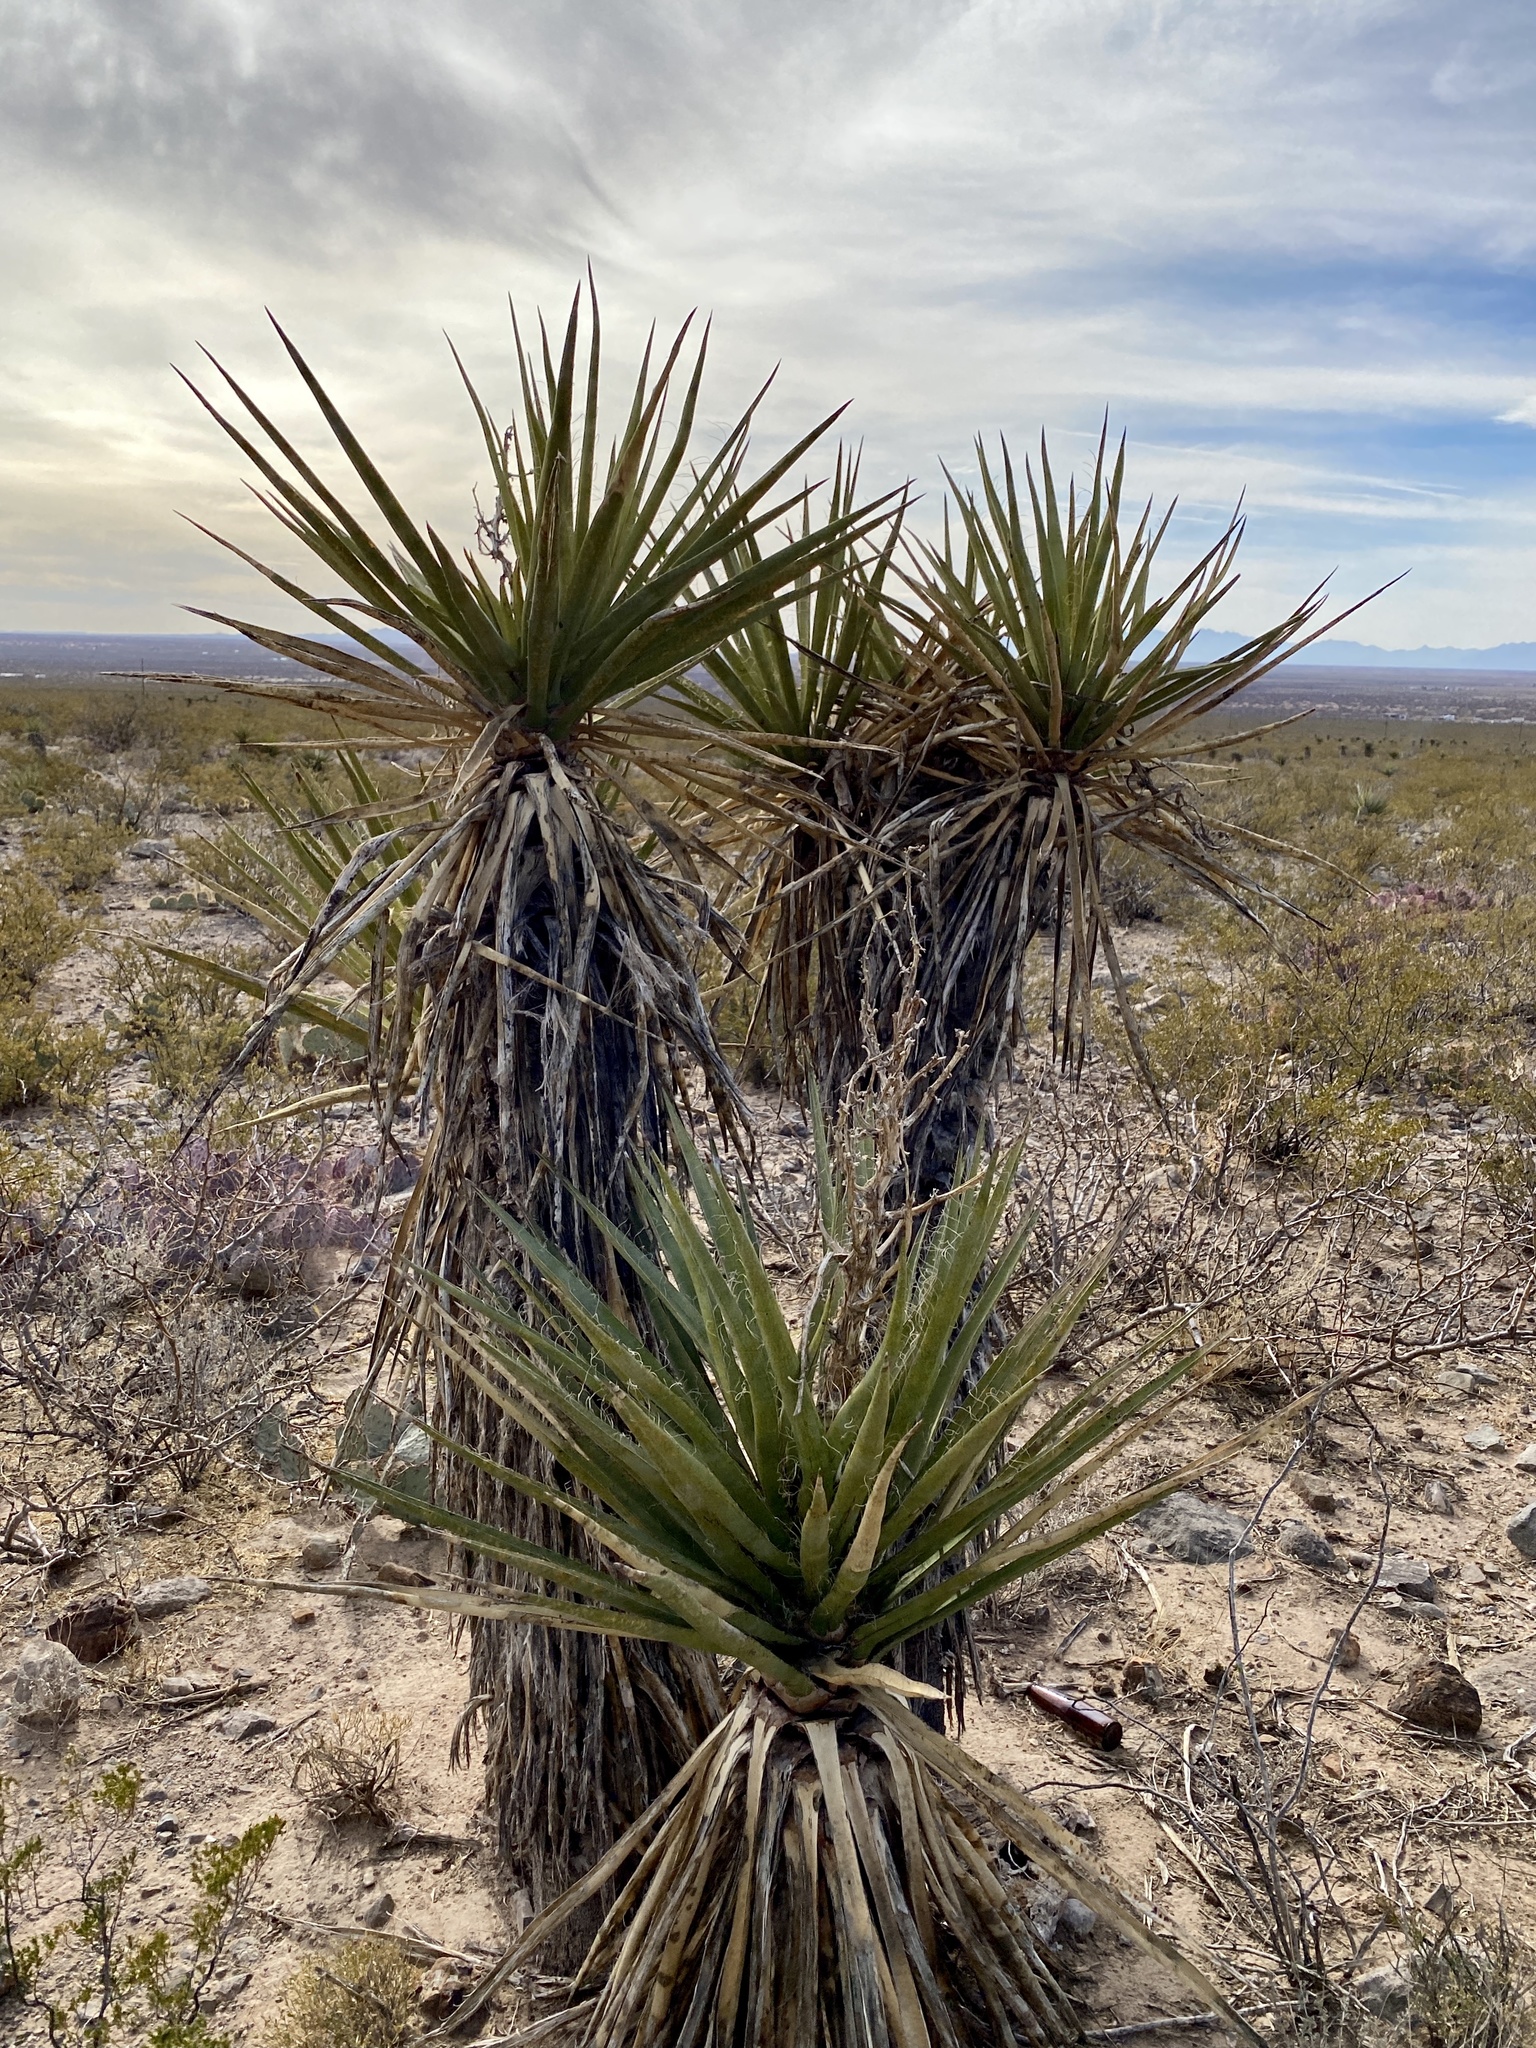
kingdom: Plantae
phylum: Tracheophyta
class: Liliopsida
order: Asparagales
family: Asparagaceae
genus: Yucca
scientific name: Yucca treculiana
